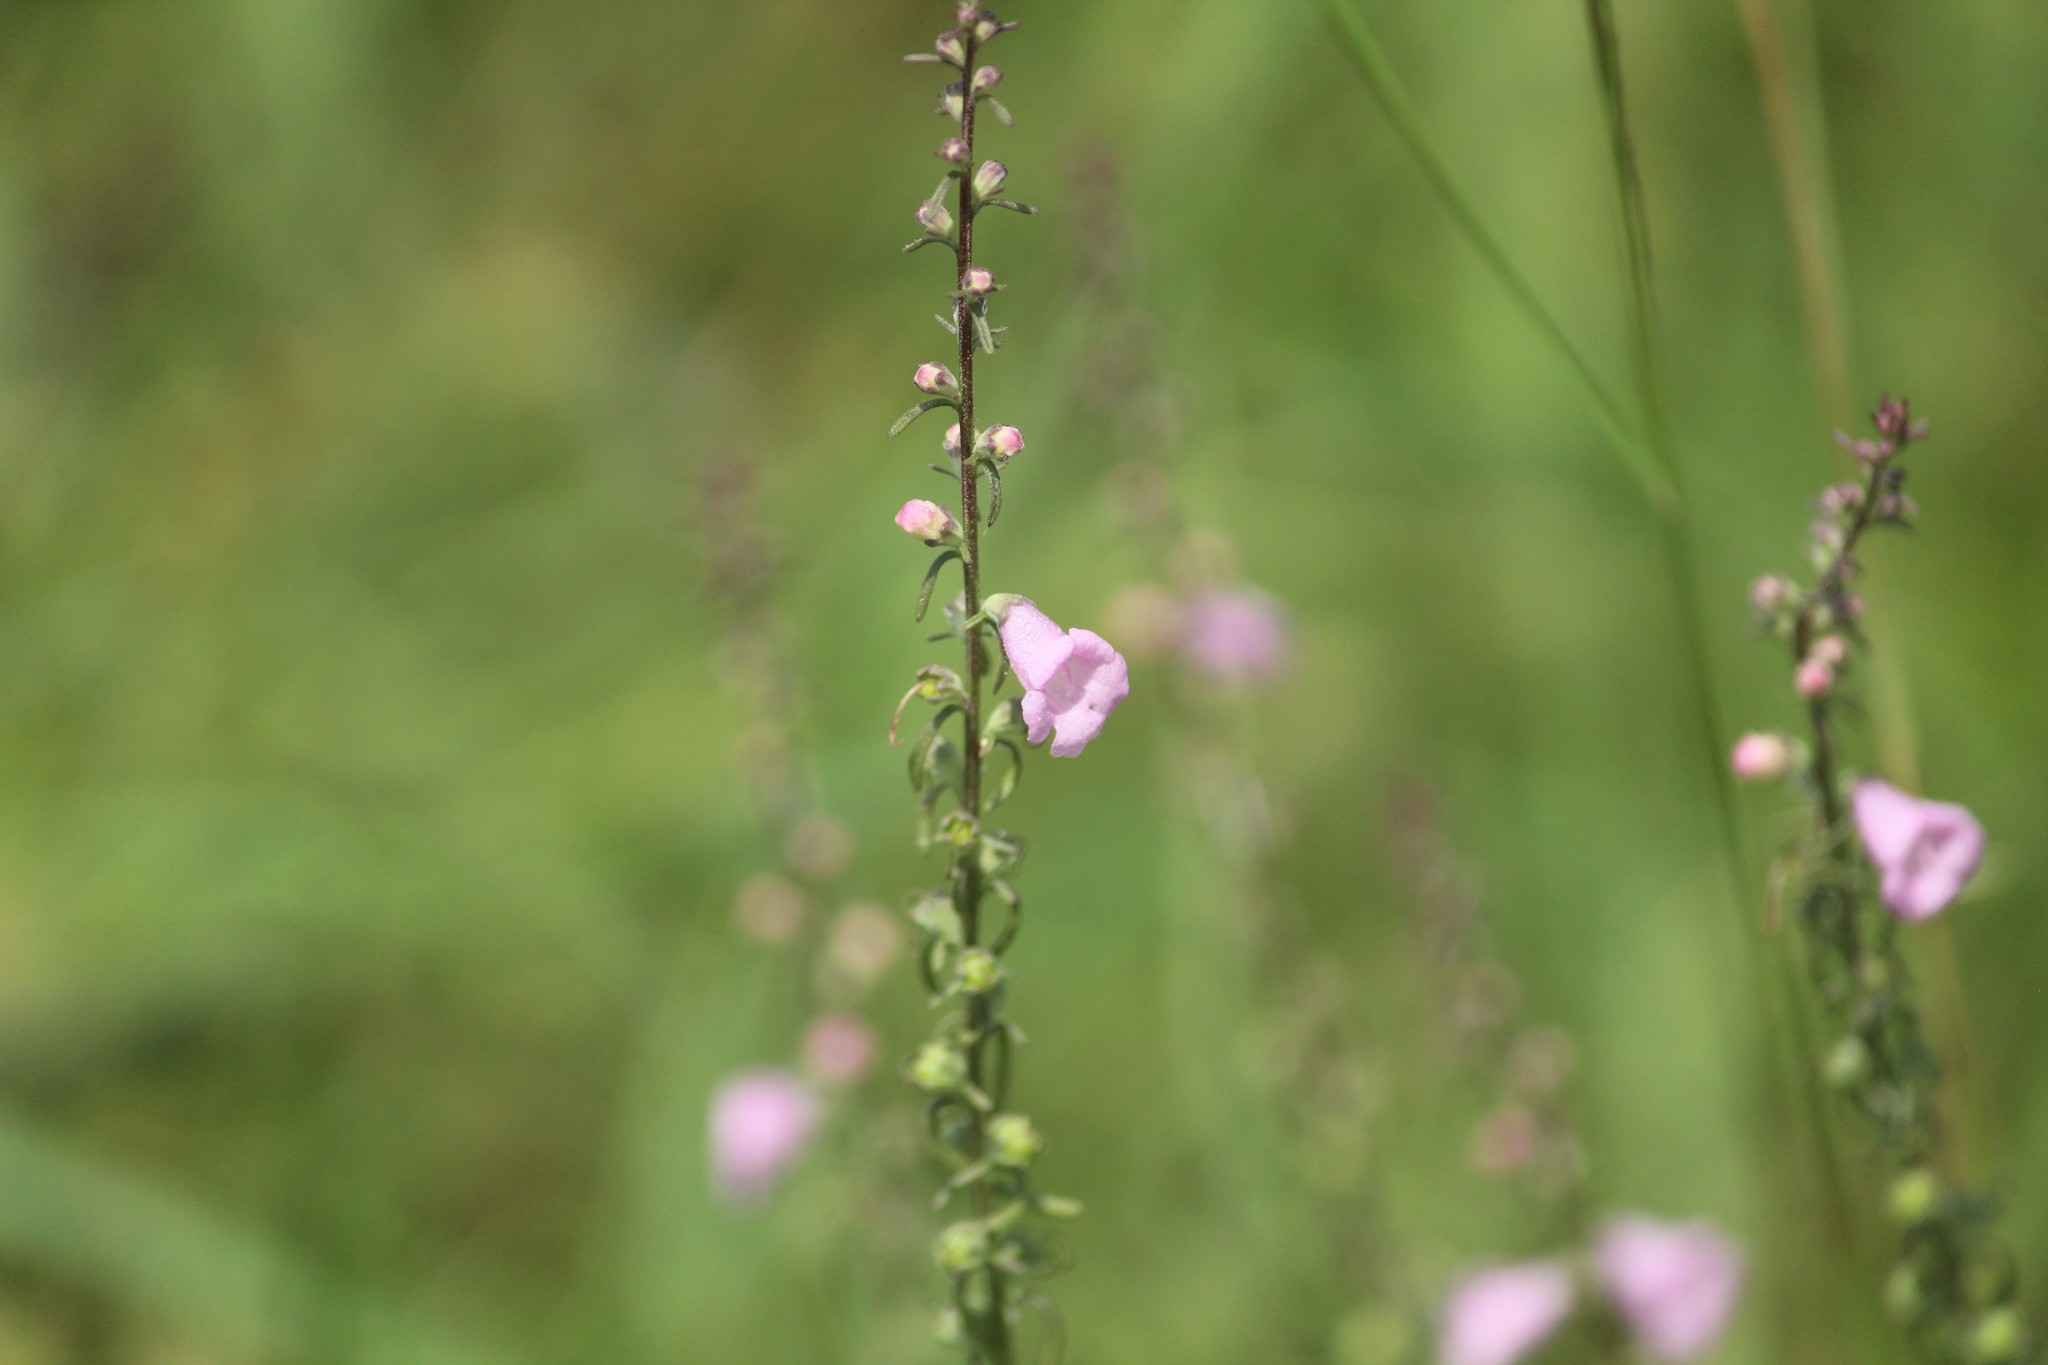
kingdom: Plantae
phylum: Tracheophyta
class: Magnoliopsida
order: Lamiales
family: Orobanchaceae
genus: Micrargeria
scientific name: Micrargeria wightii
